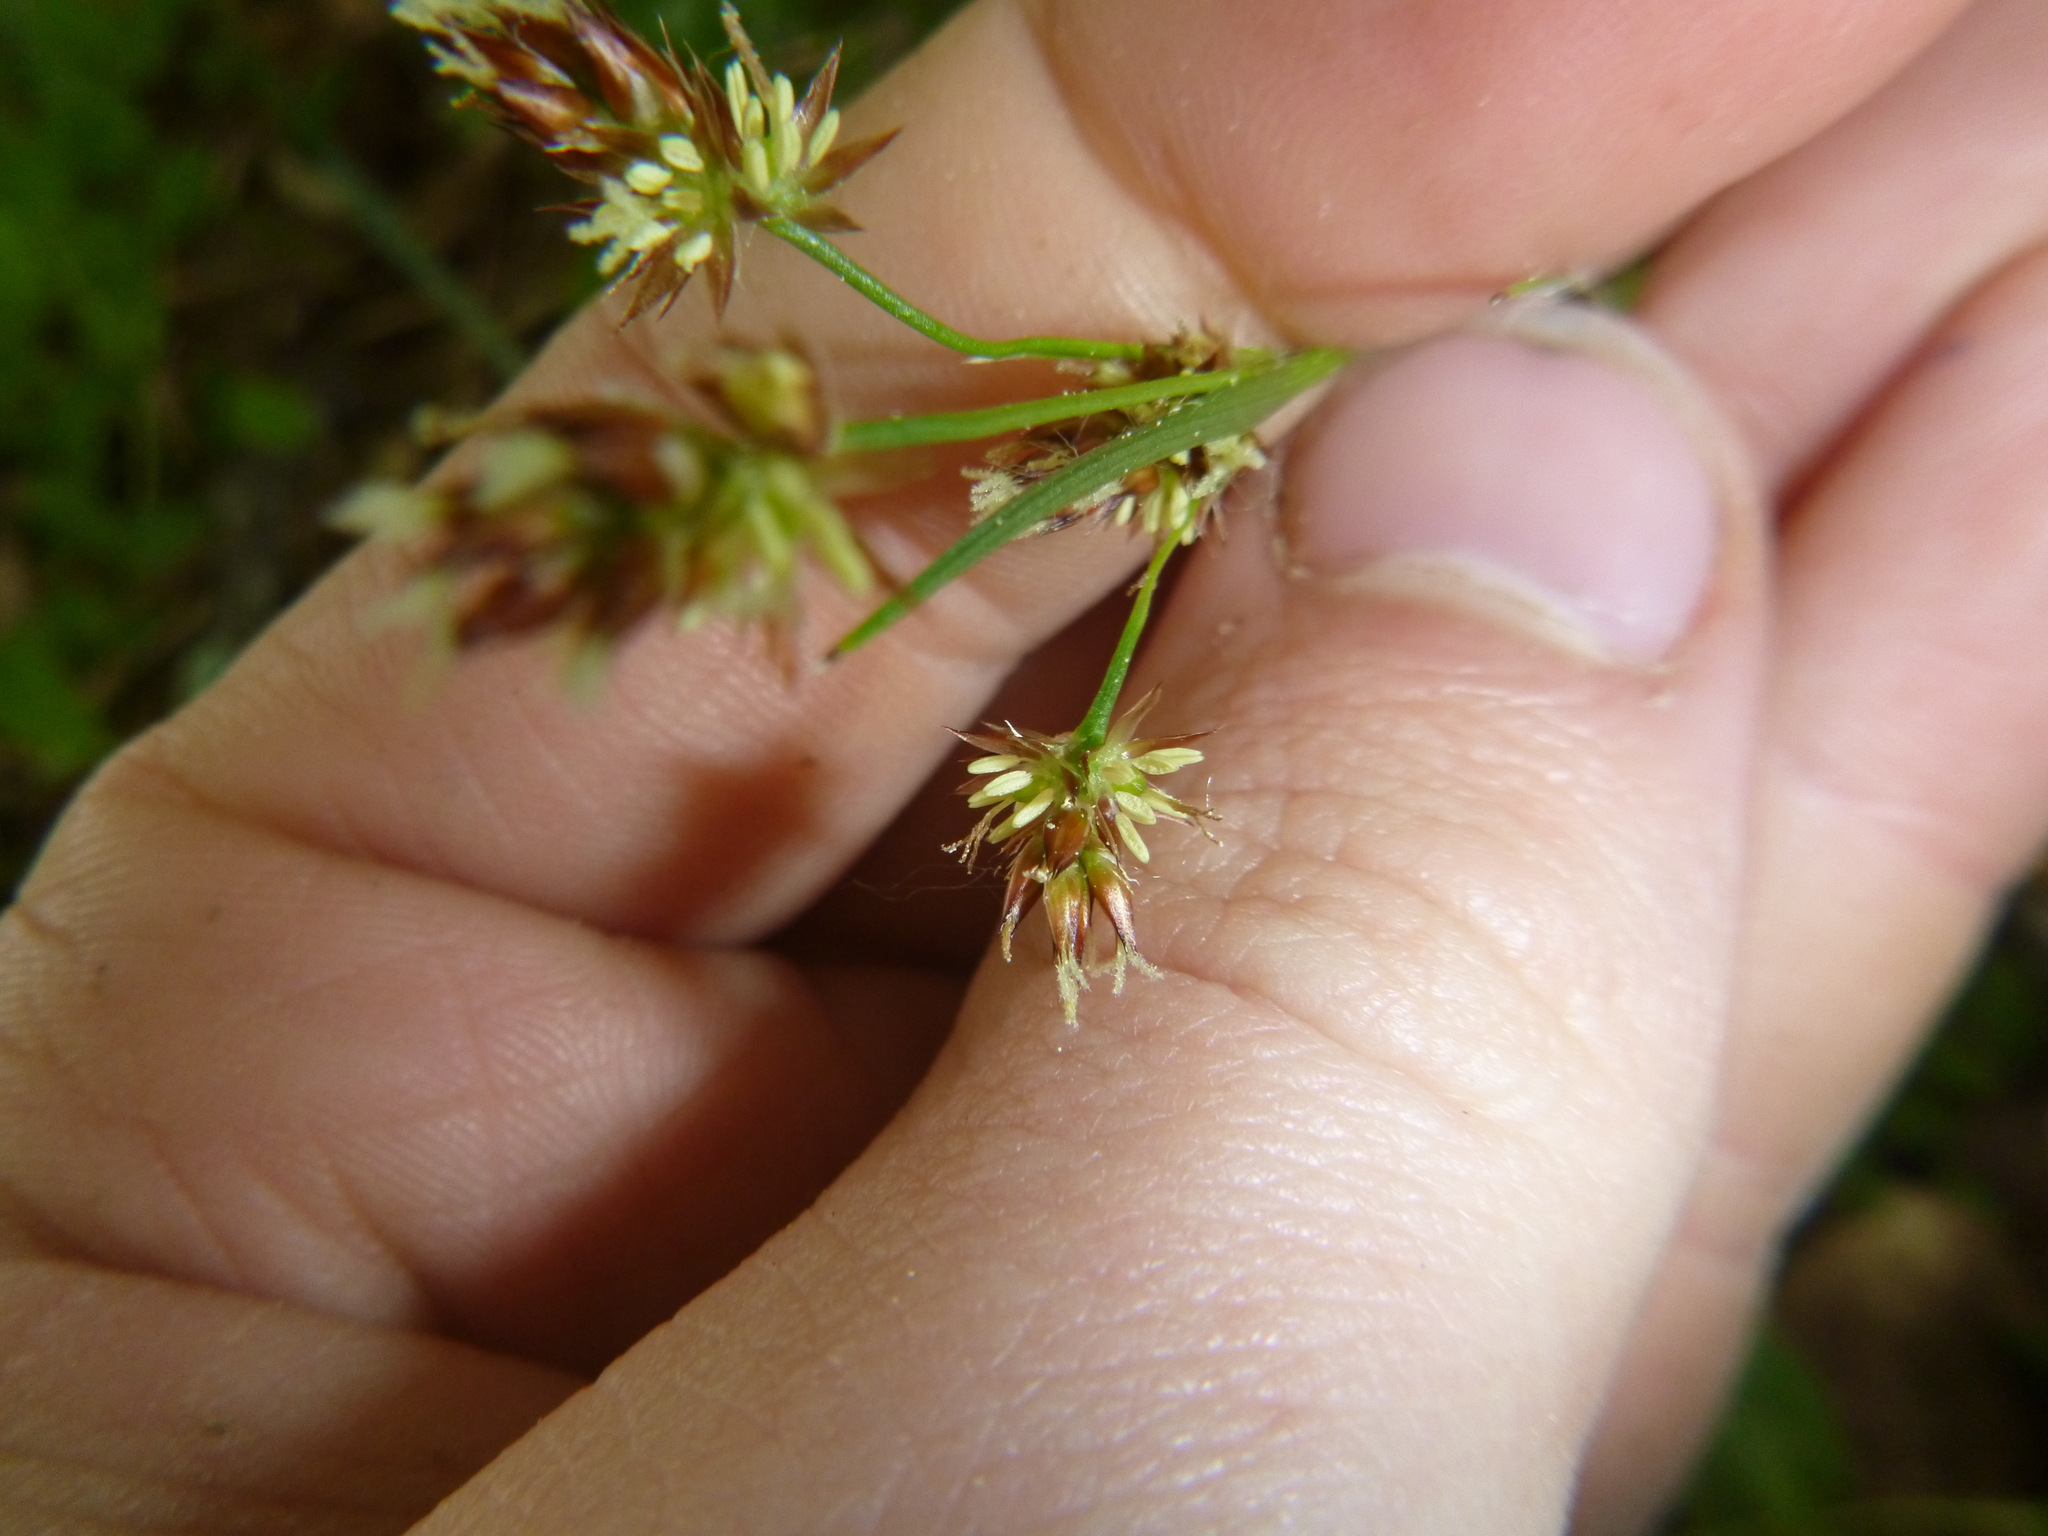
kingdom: Plantae
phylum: Tracheophyta
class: Liliopsida
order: Poales
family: Juncaceae
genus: Luzula
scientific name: Luzula multiflora
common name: Heath wood-rush
